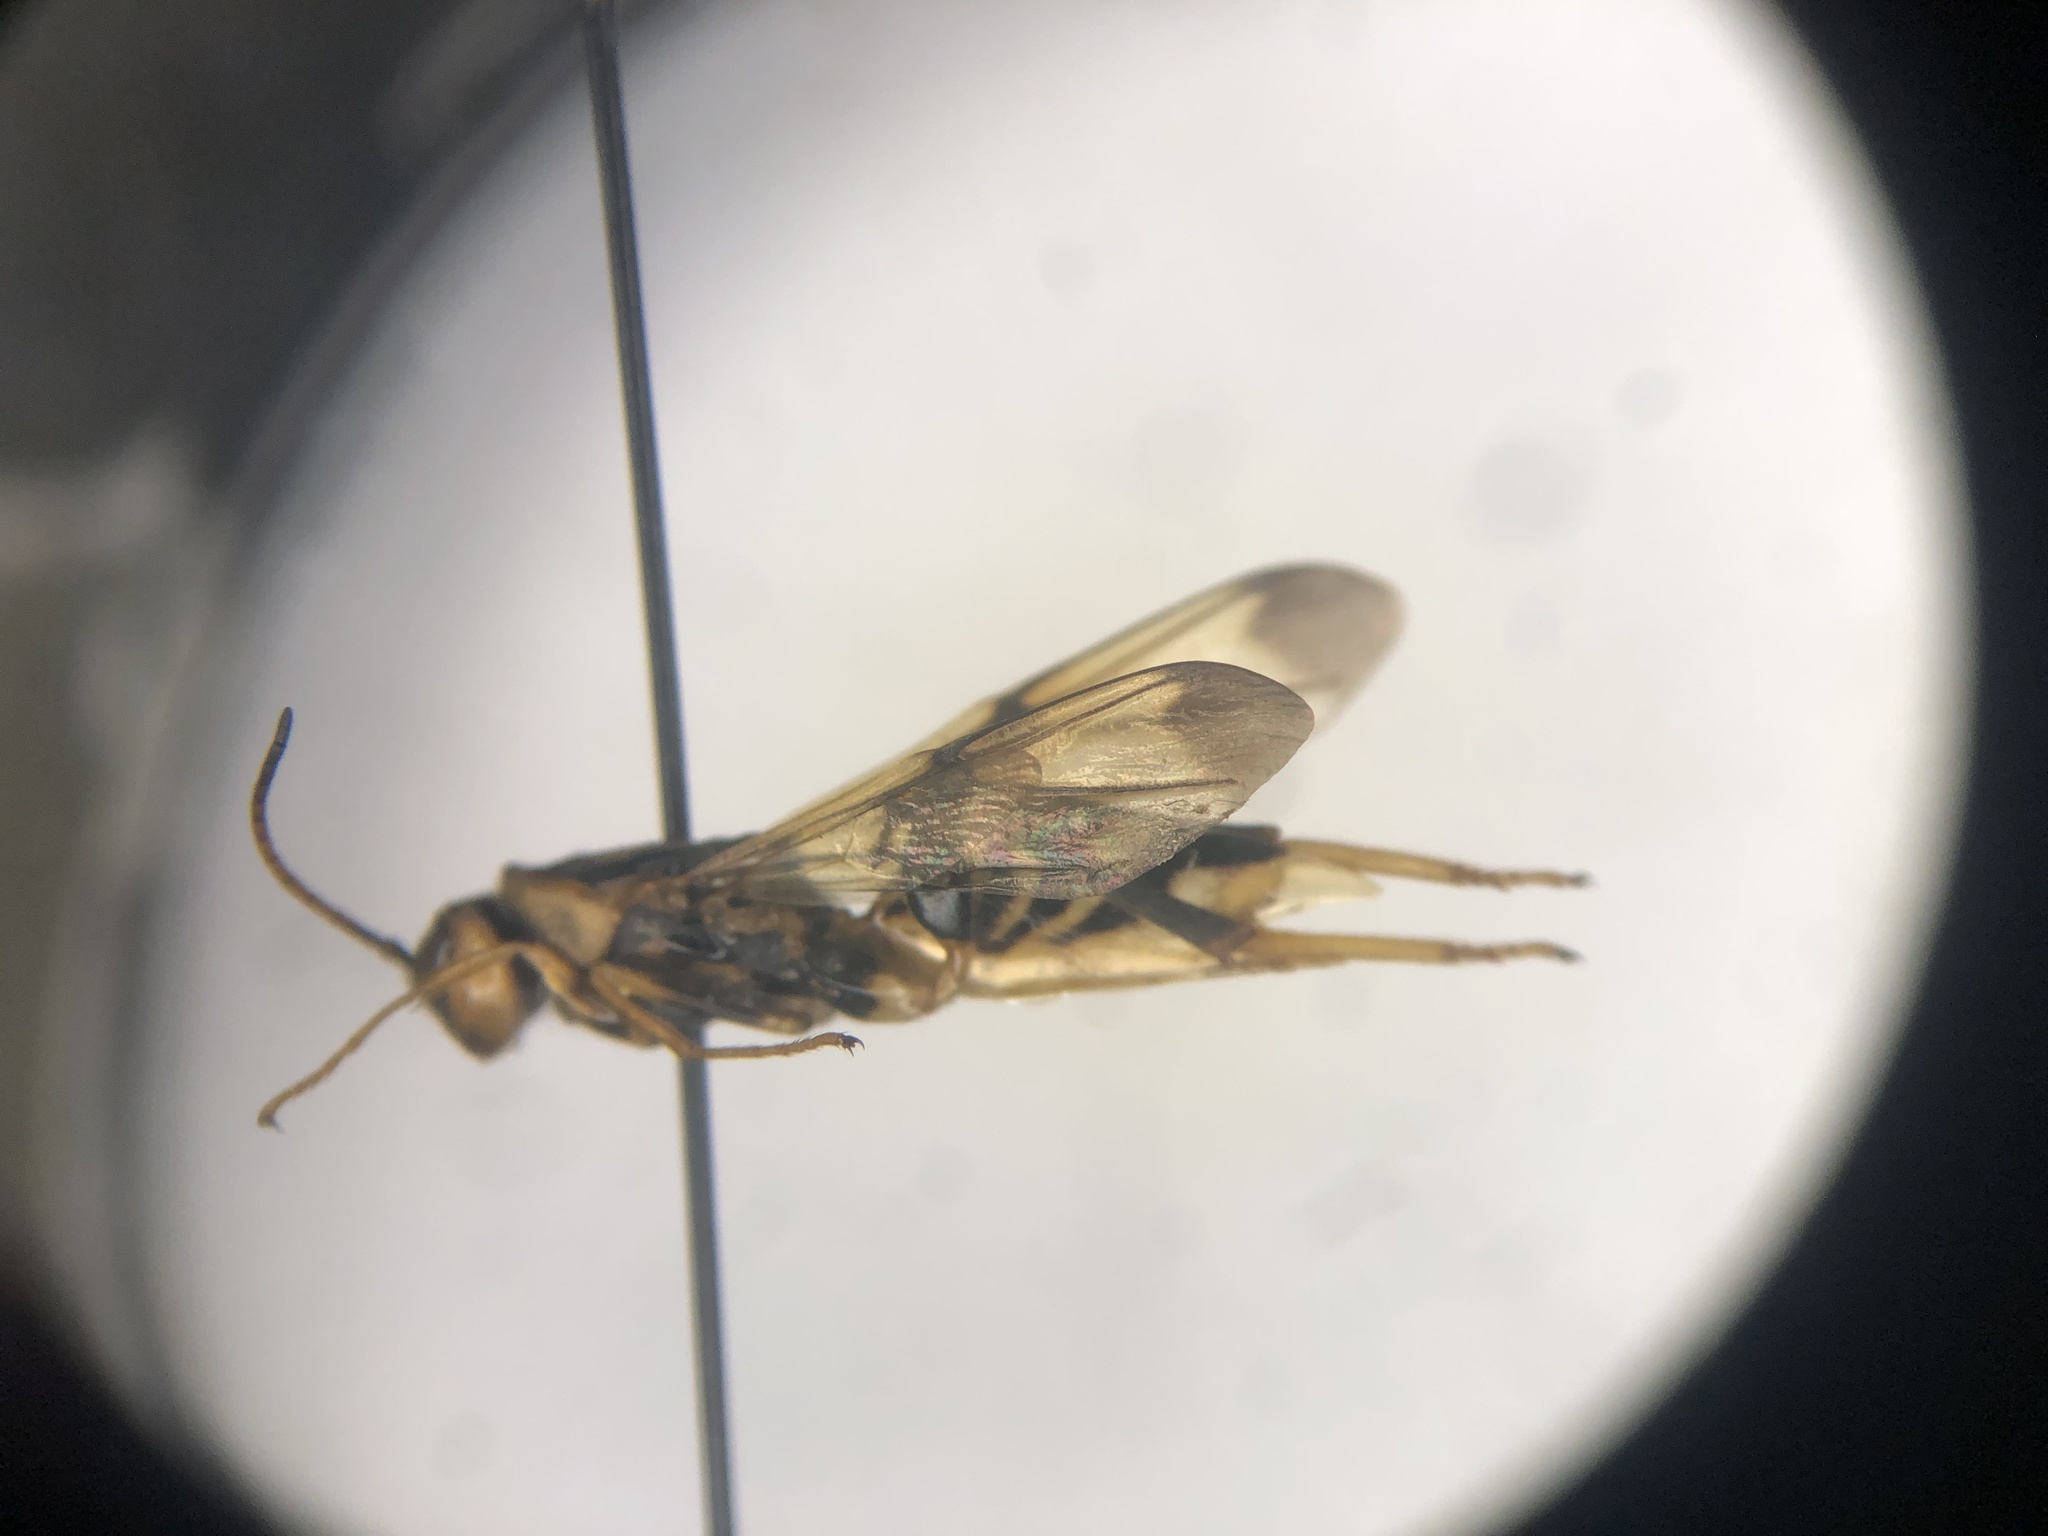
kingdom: Animalia
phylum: Arthropoda
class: Insecta
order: Hymenoptera
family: Ibaliidae
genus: Ibalia
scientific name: Ibalia anceps
